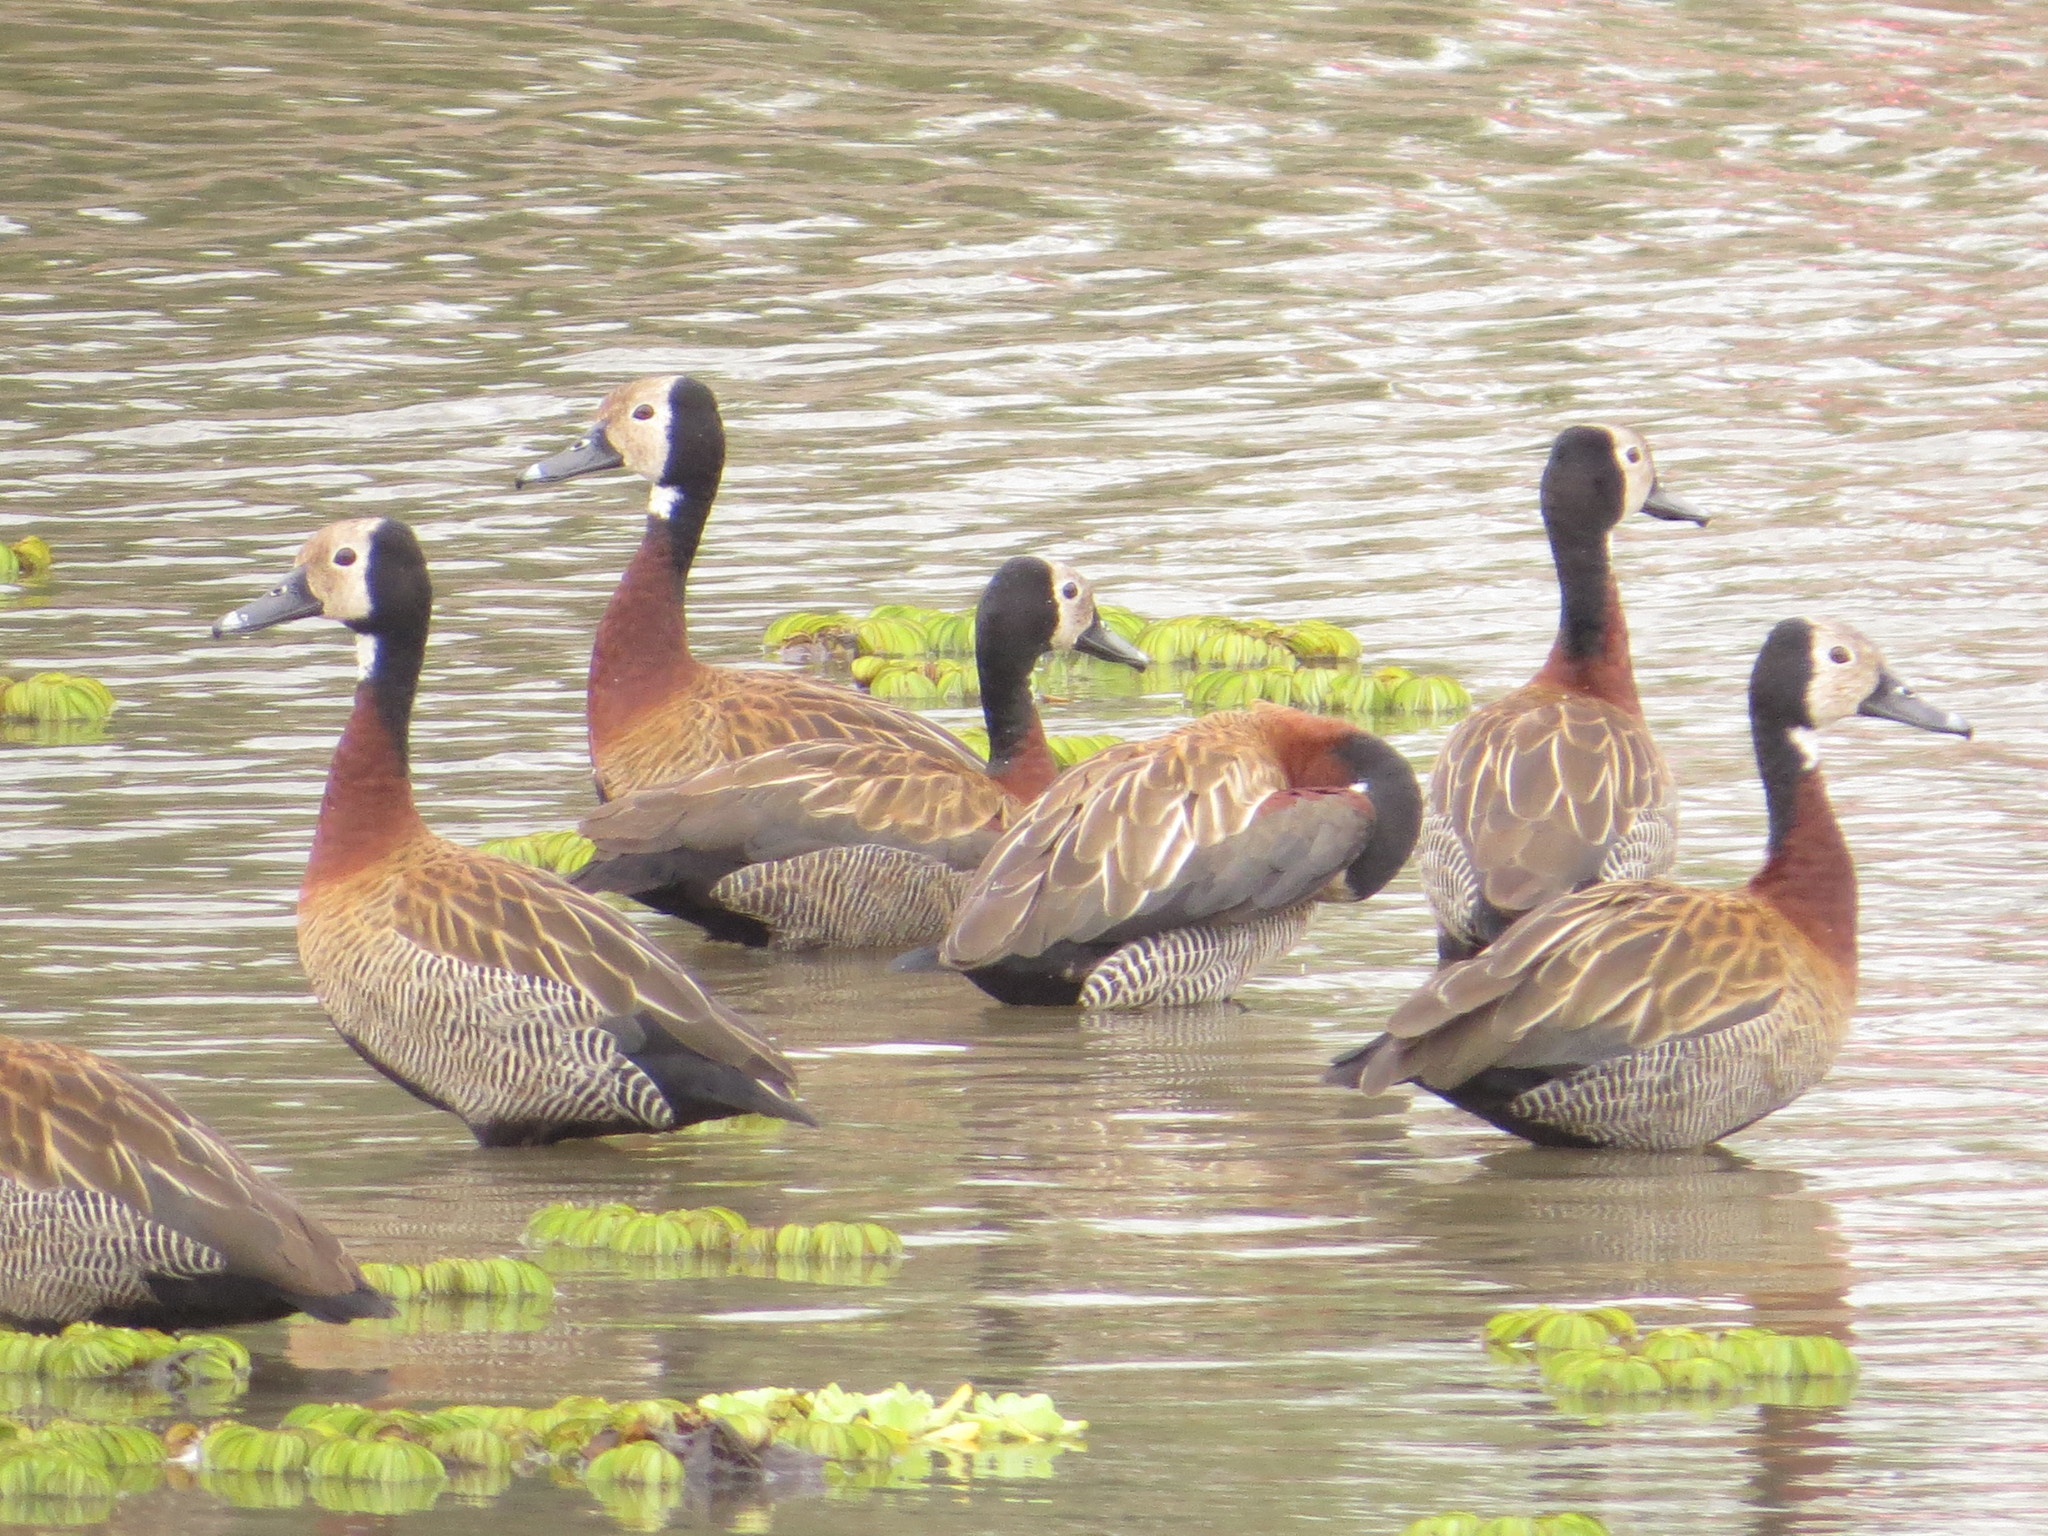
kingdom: Animalia
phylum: Chordata
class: Aves
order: Anseriformes
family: Anatidae
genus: Dendrocygna
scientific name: Dendrocygna viduata
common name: White-faced whistling duck
